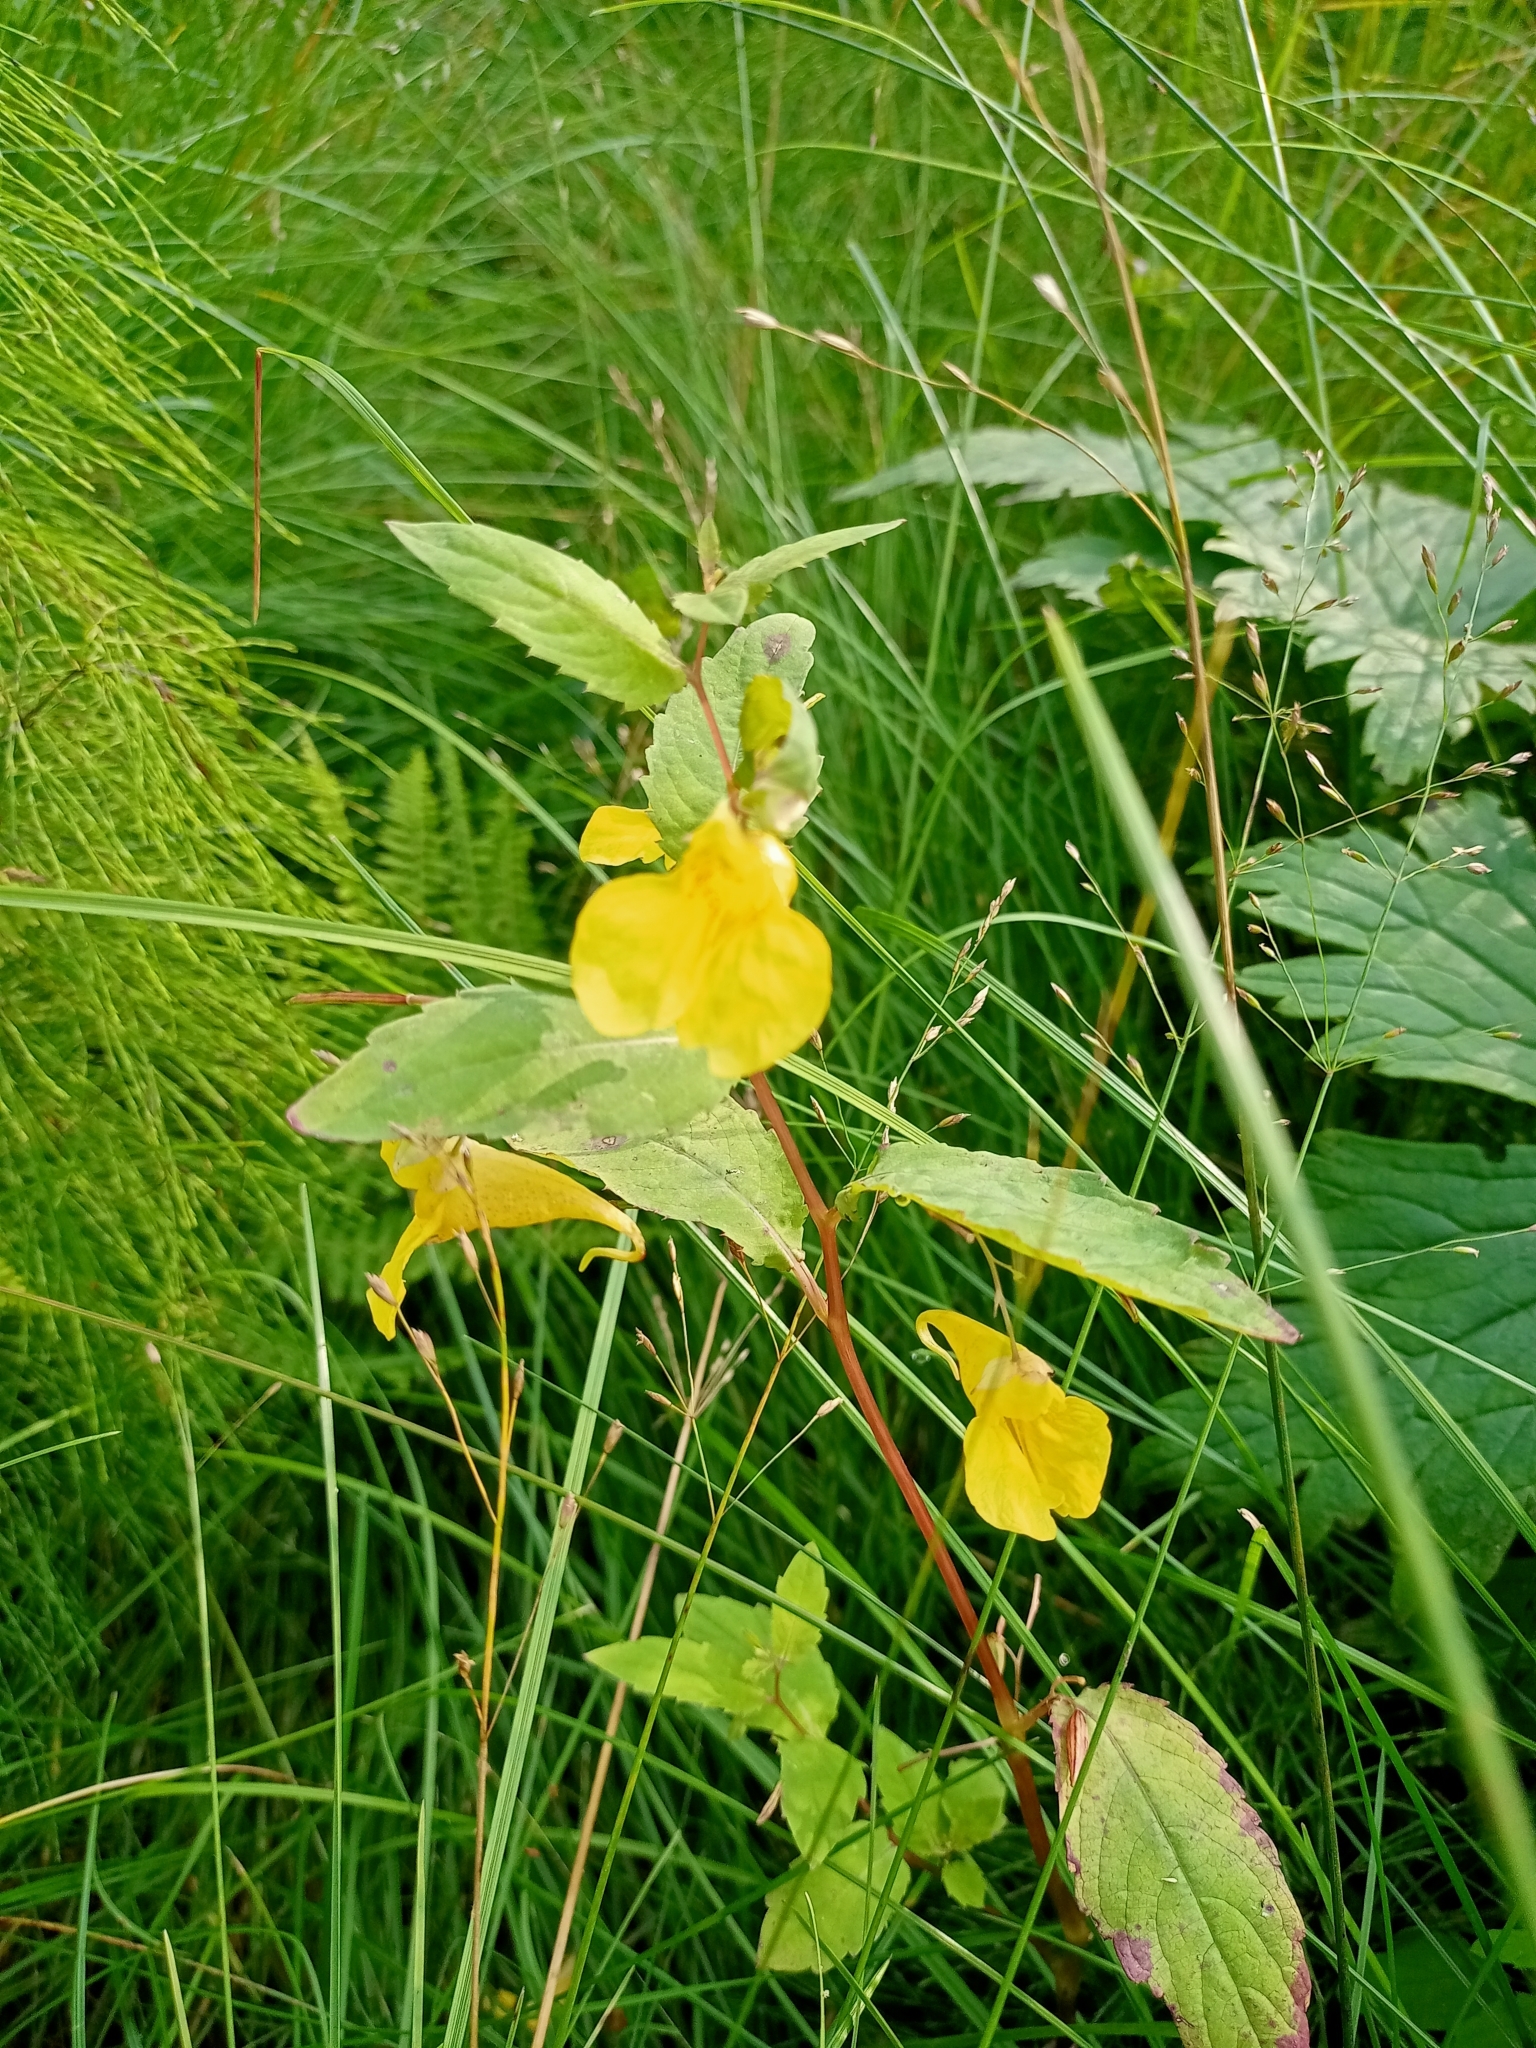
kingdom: Plantae
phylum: Tracheophyta
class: Magnoliopsida
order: Ericales
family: Balsaminaceae
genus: Impatiens
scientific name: Impatiens noli-tangere
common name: Touch-me-not balsam
